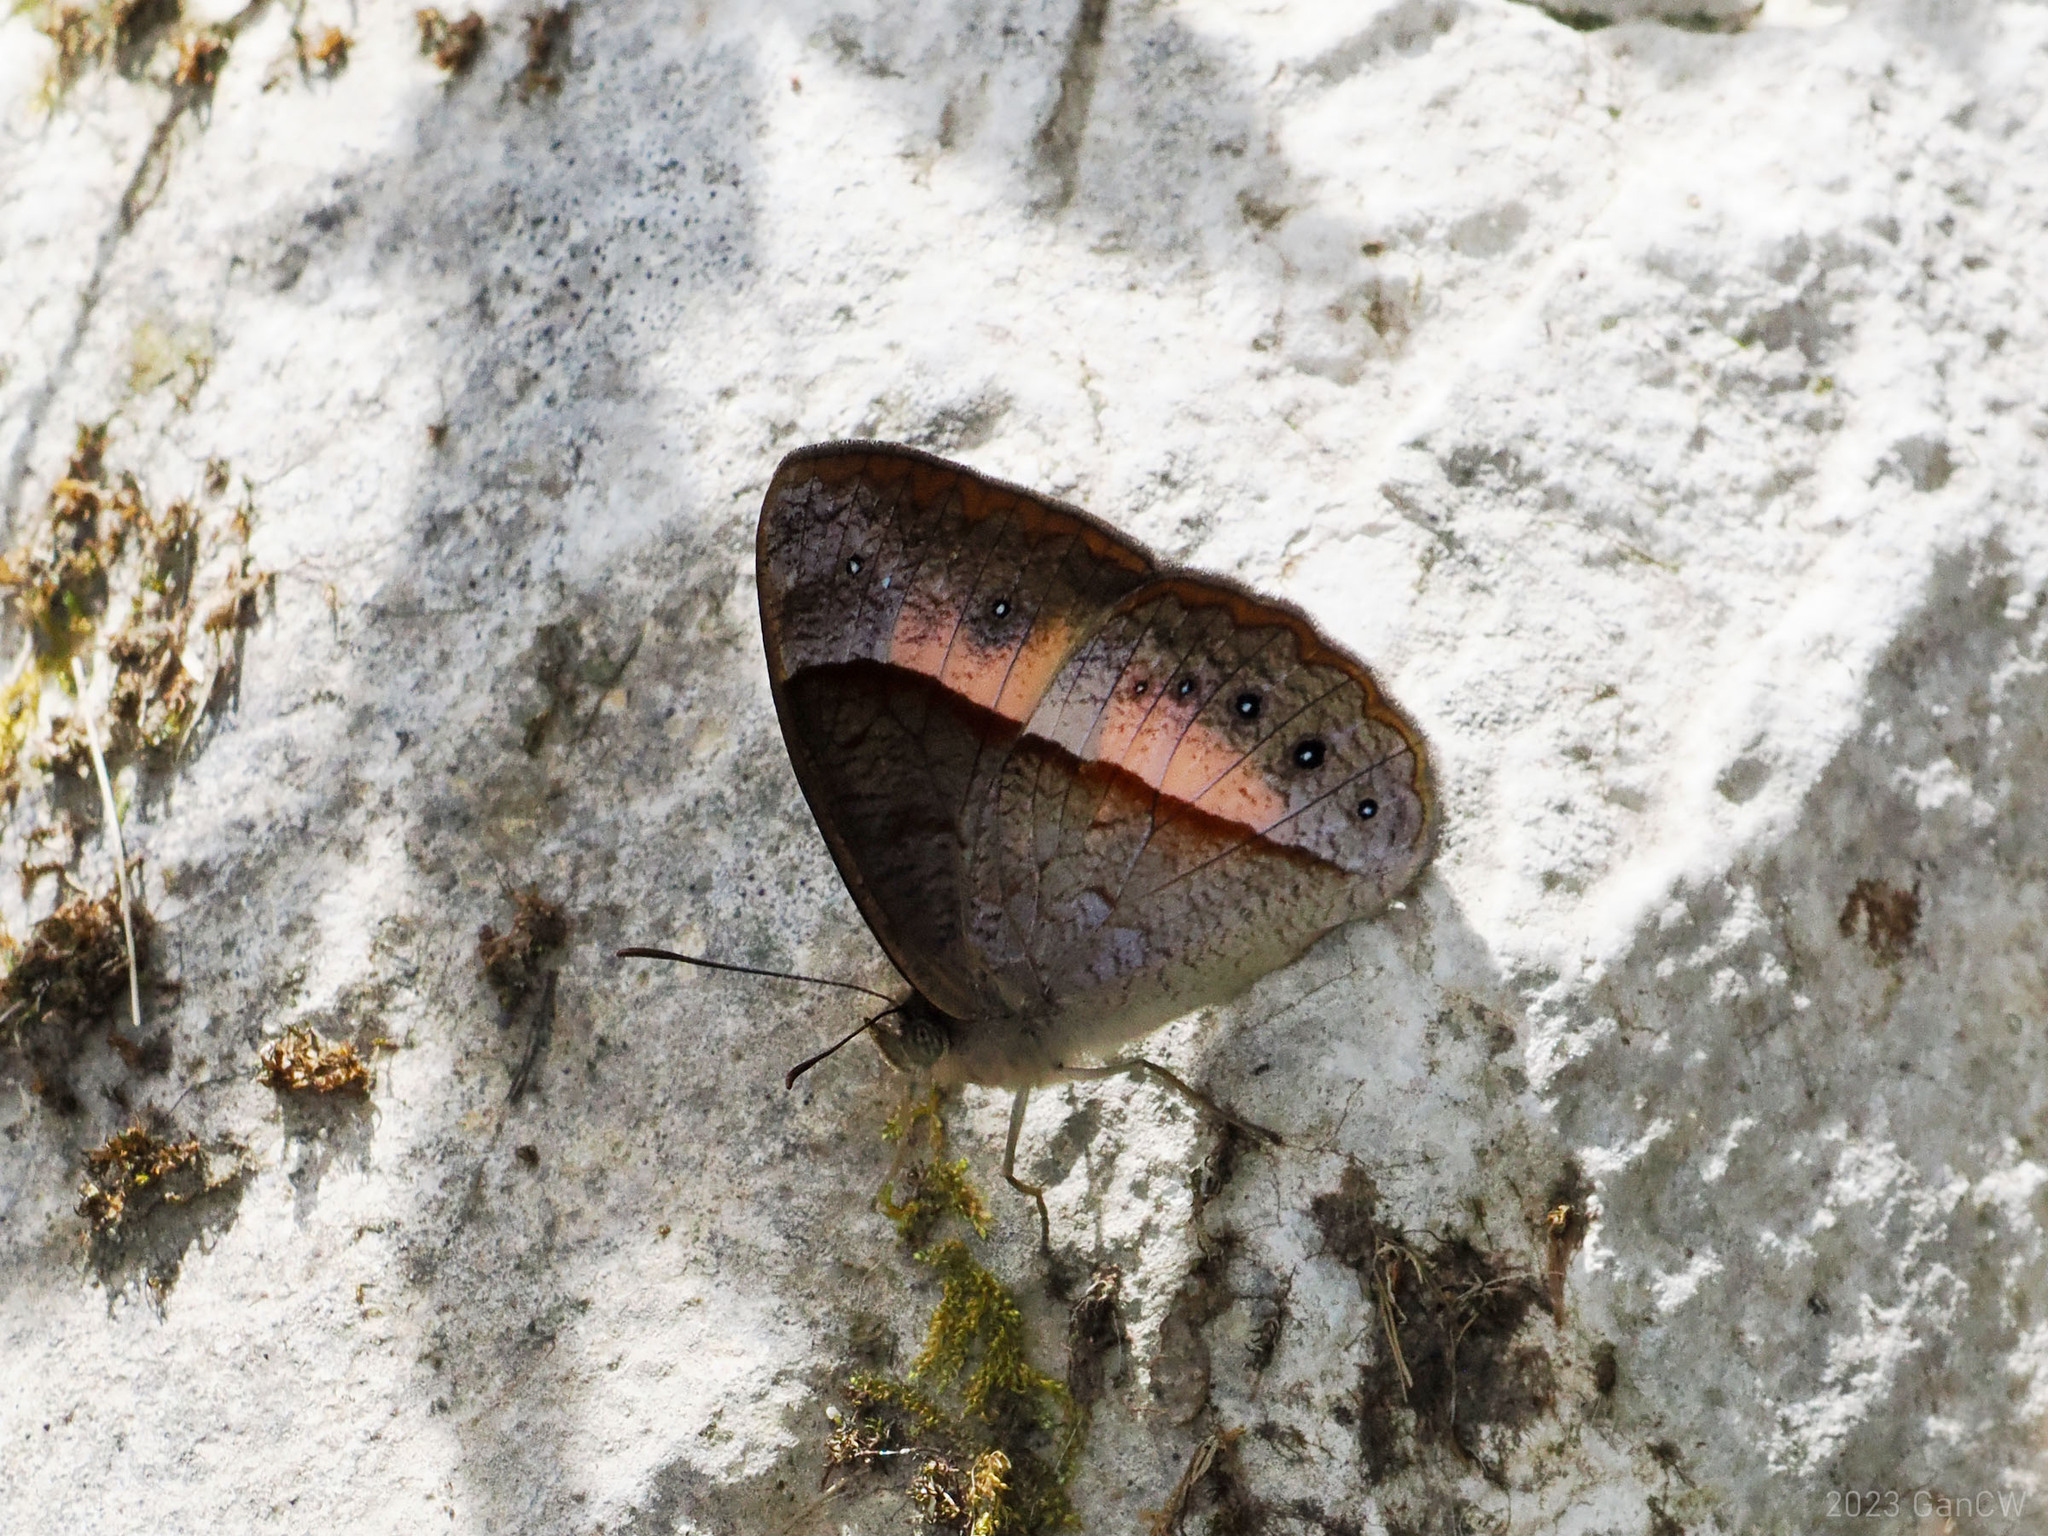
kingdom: Animalia
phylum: Arthropoda
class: Insecta
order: Lepidoptera
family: Nymphalidae
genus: Mycalesis
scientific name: Mycalesis discobolus
